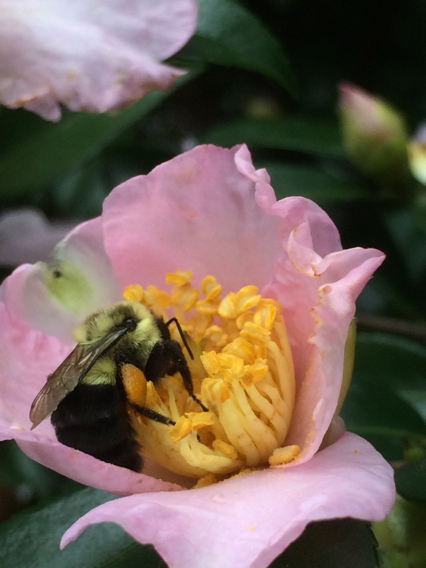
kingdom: Animalia
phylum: Arthropoda
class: Insecta
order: Hymenoptera
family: Apidae
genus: Bombus
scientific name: Bombus impatiens
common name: Common eastern bumble bee
